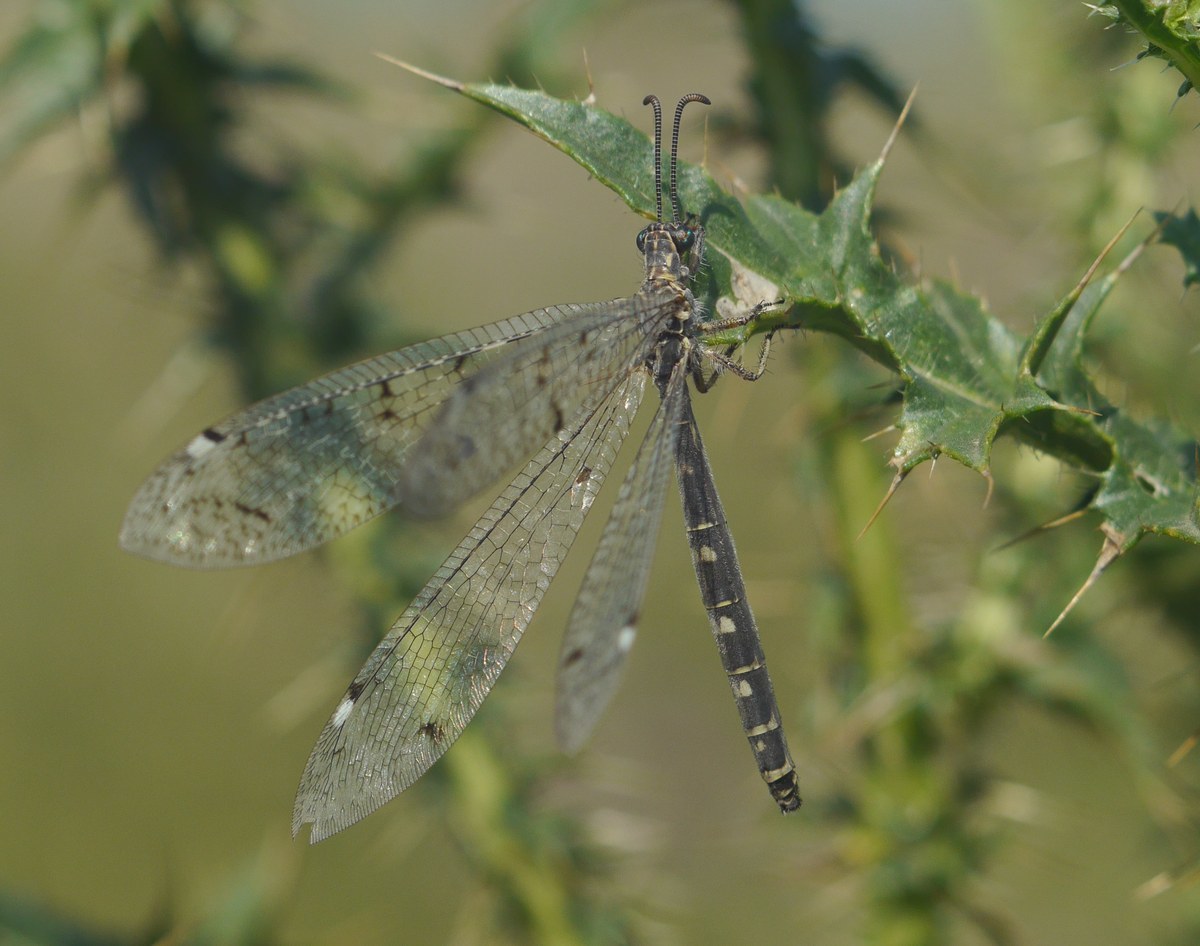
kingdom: Animalia
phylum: Arthropoda
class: Insecta
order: Neuroptera
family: Myrmeleontidae
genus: Distoleon
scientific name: Distoleon tetragrammicus
